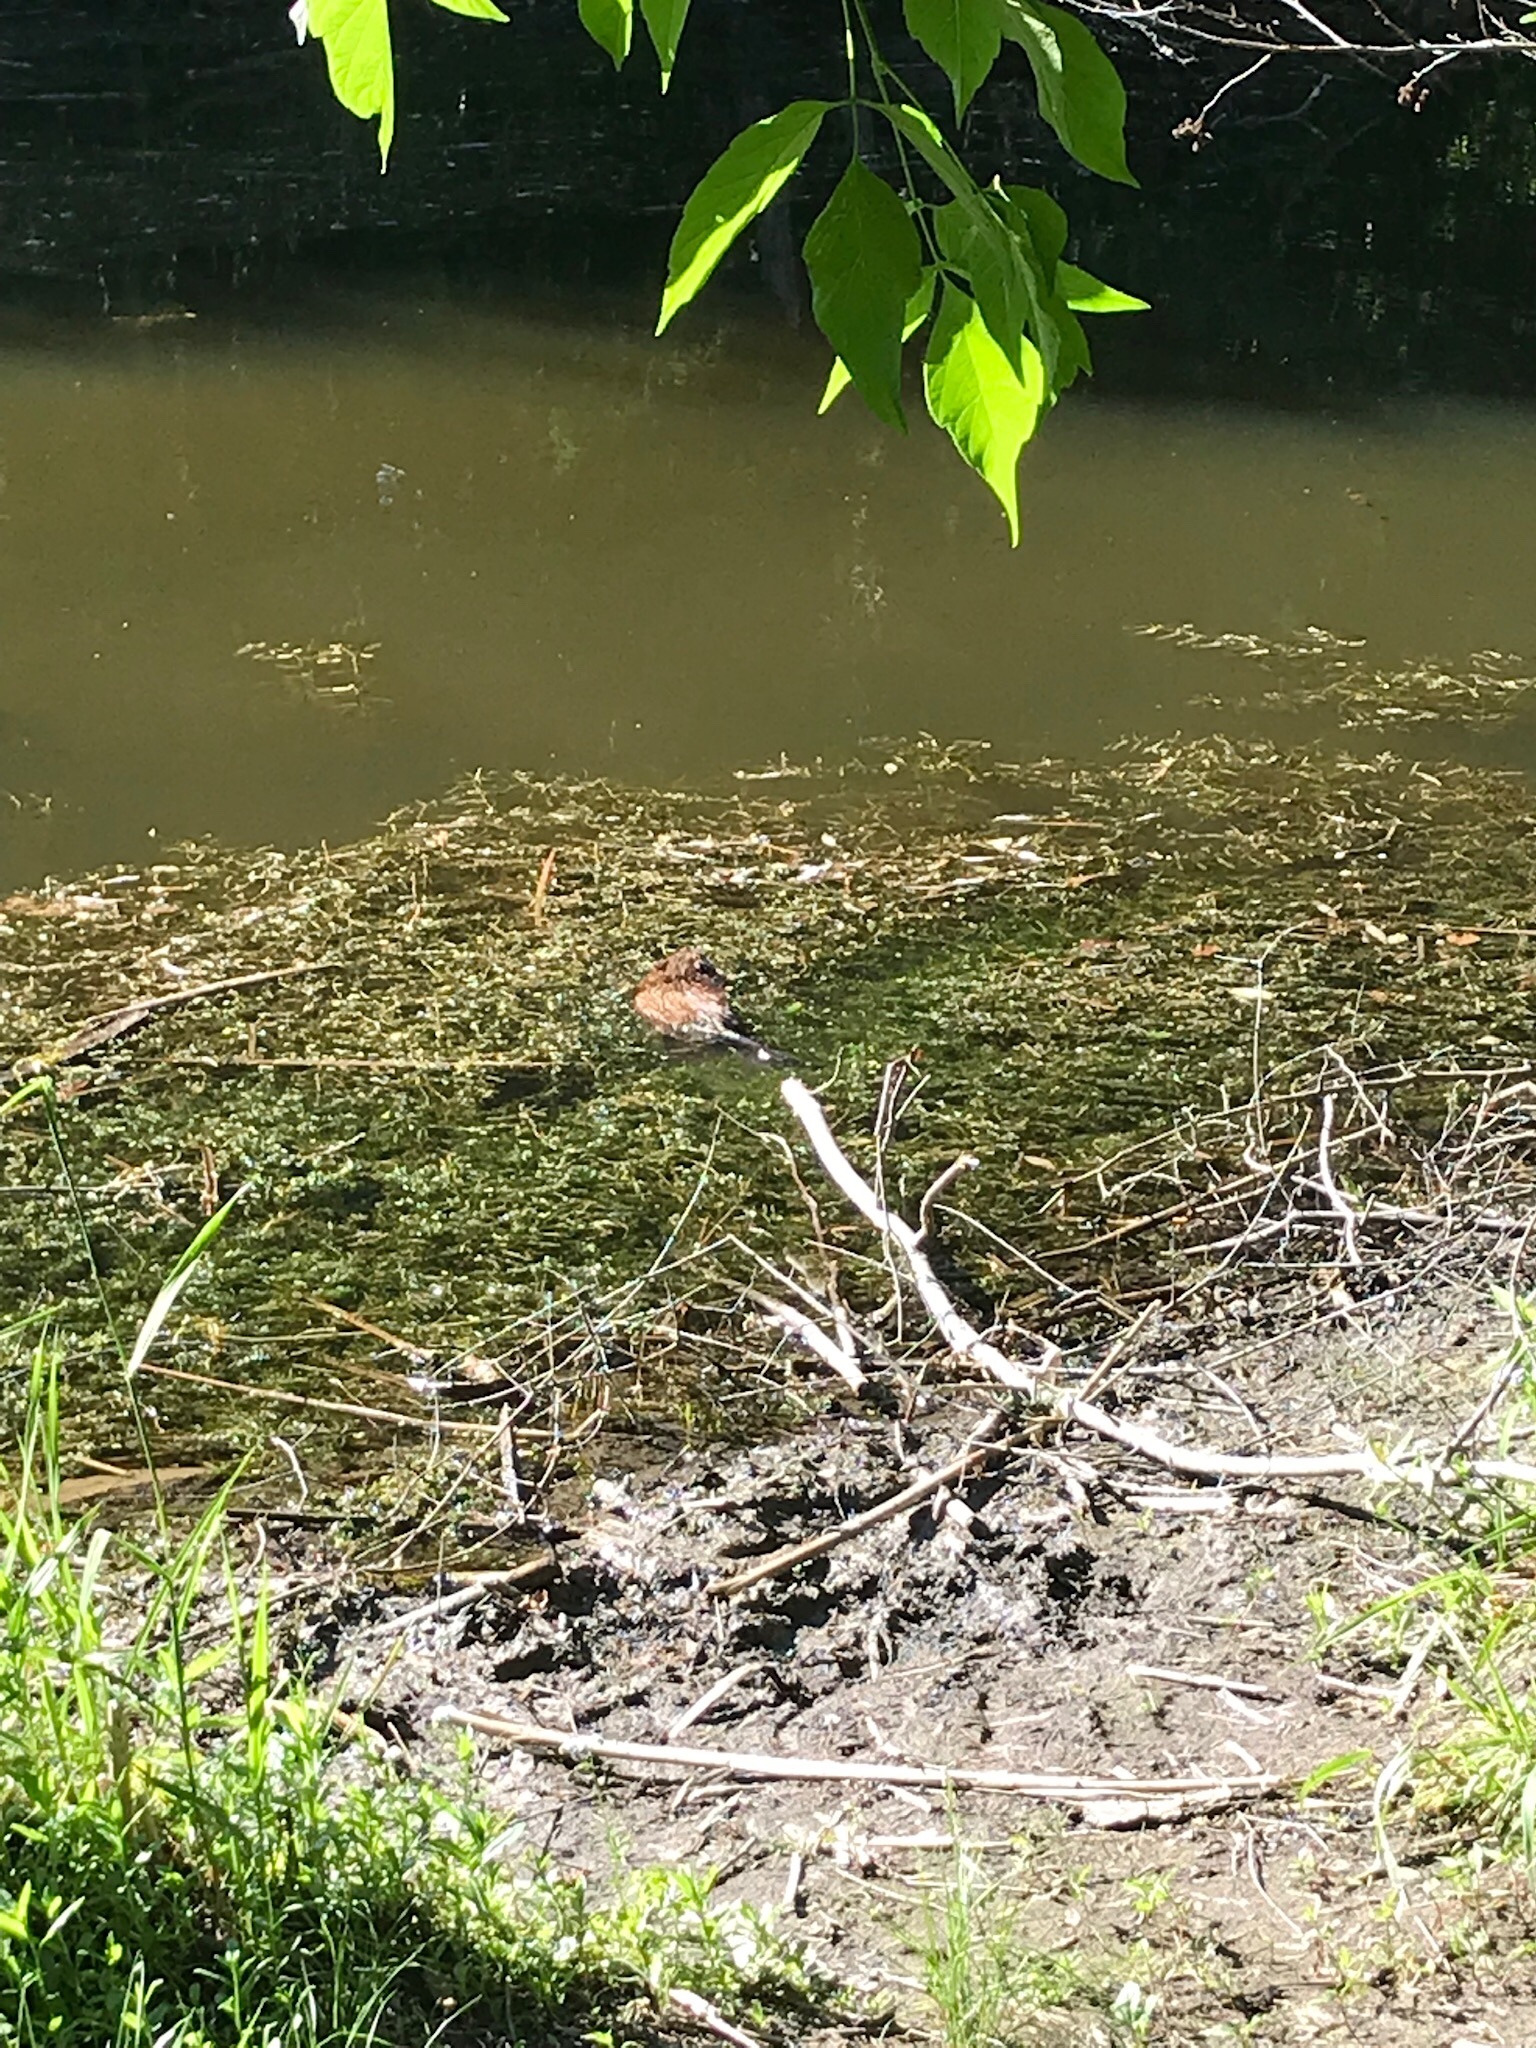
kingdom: Animalia
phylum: Chordata
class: Mammalia
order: Rodentia
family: Cricetidae
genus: Ondatra
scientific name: Ondatra zibethicus
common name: Muskrat
